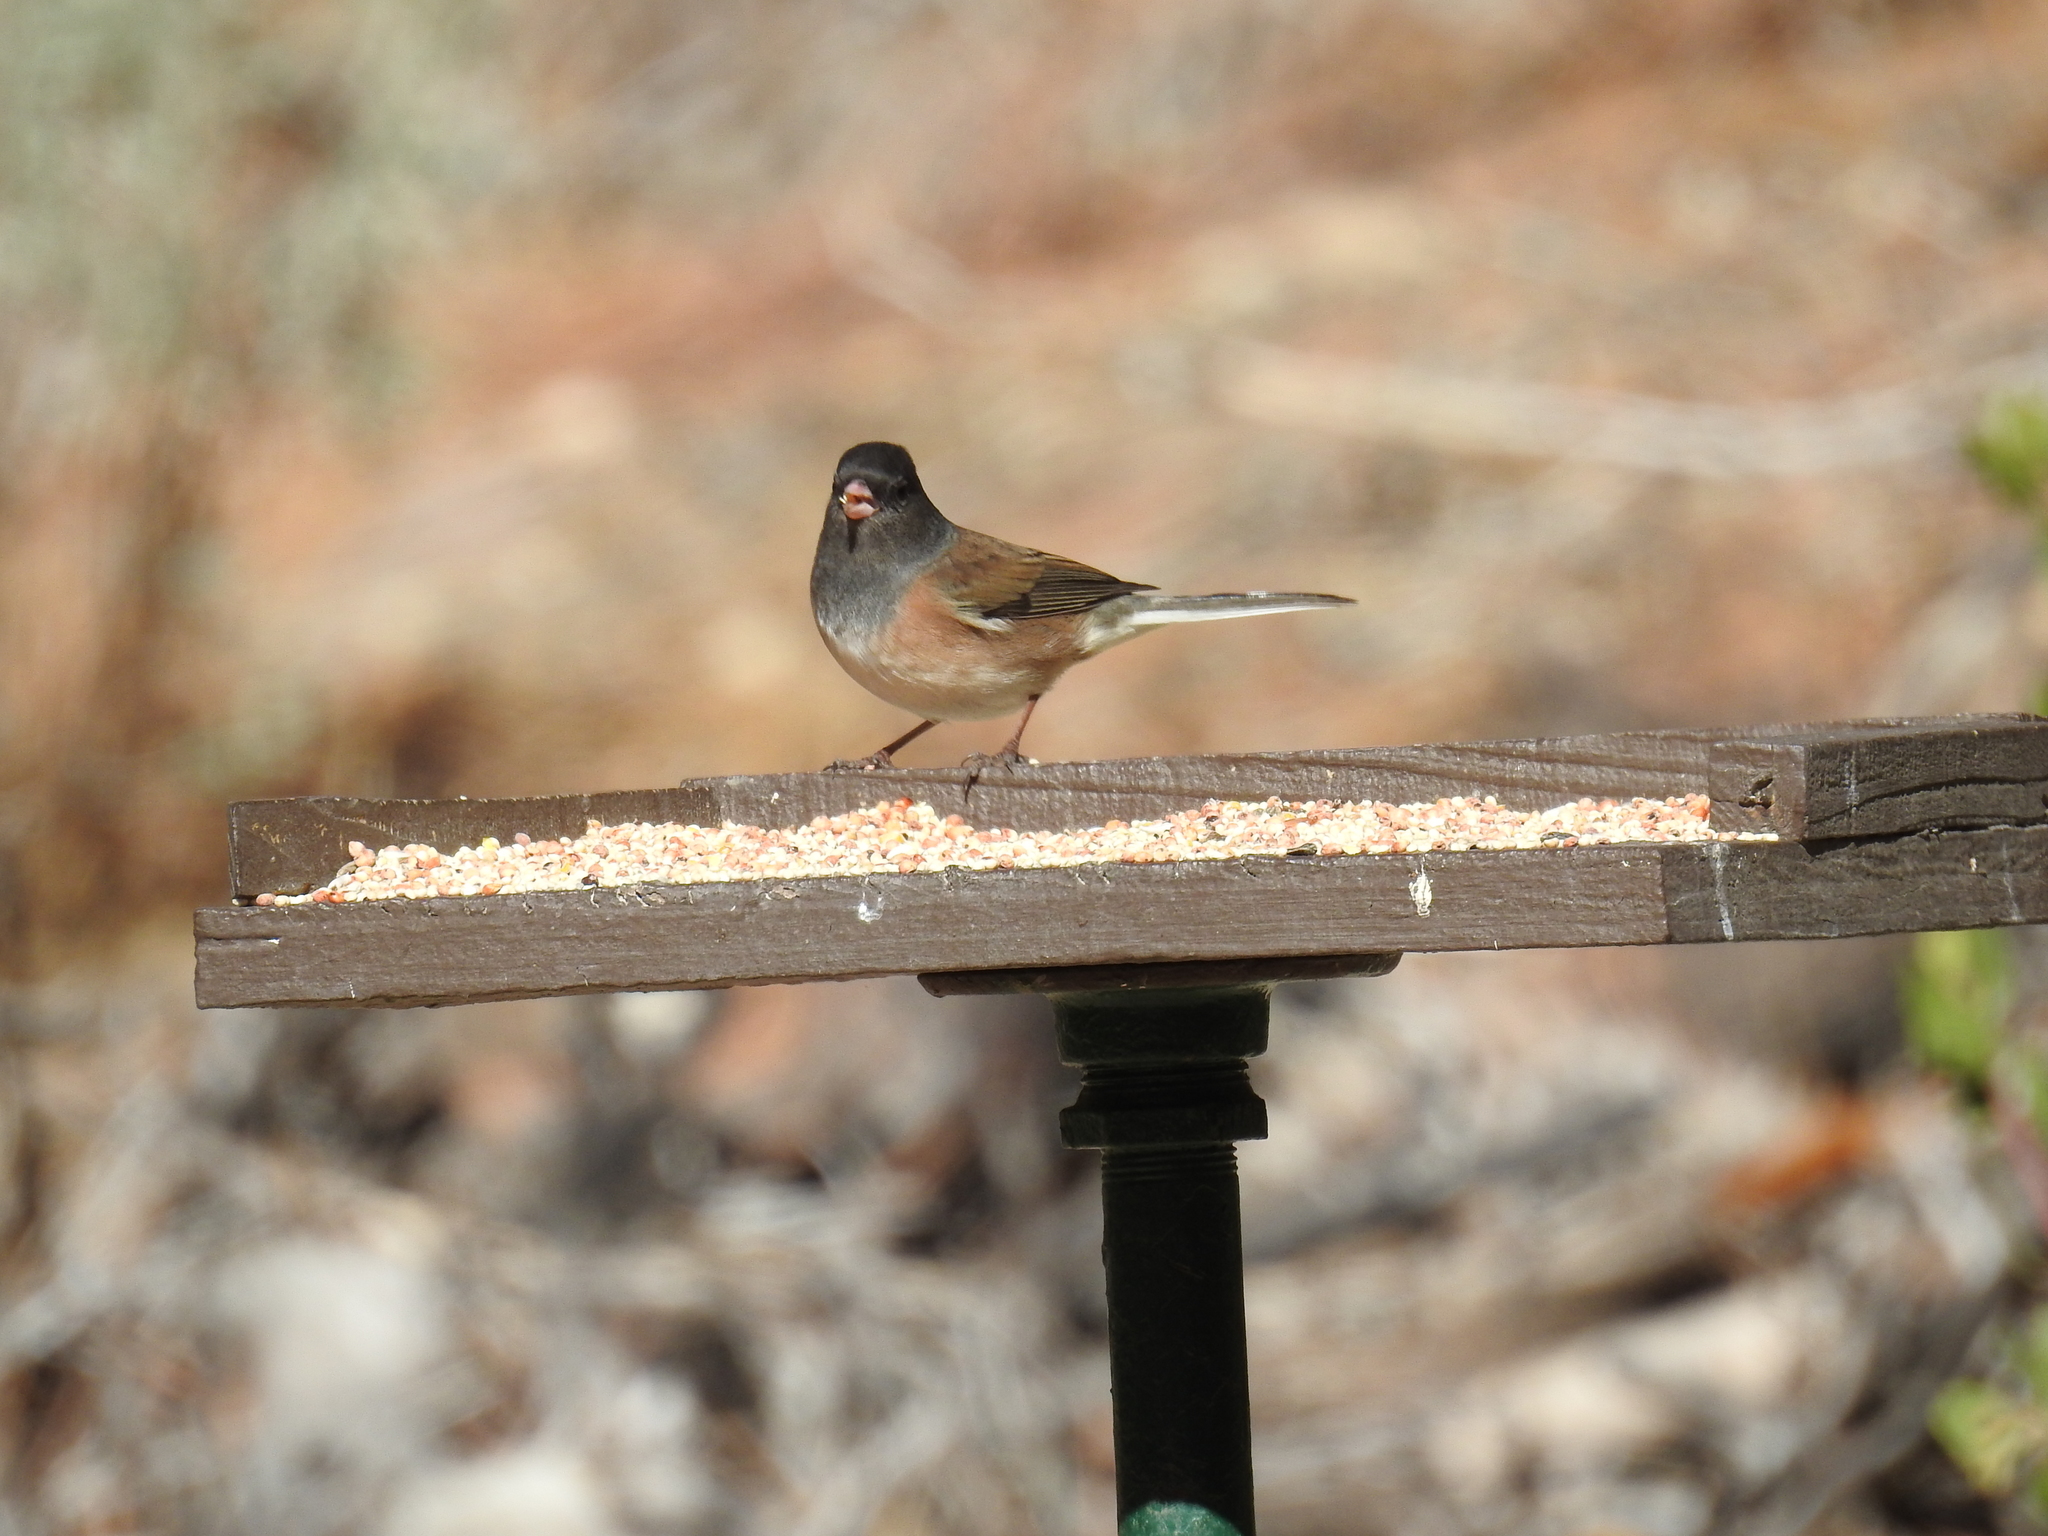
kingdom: Animalia
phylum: Chordata
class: Aves
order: Passeriformes
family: Passerellidae
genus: Junco
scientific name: Junco hyemalis
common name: Dark-eyed junco
